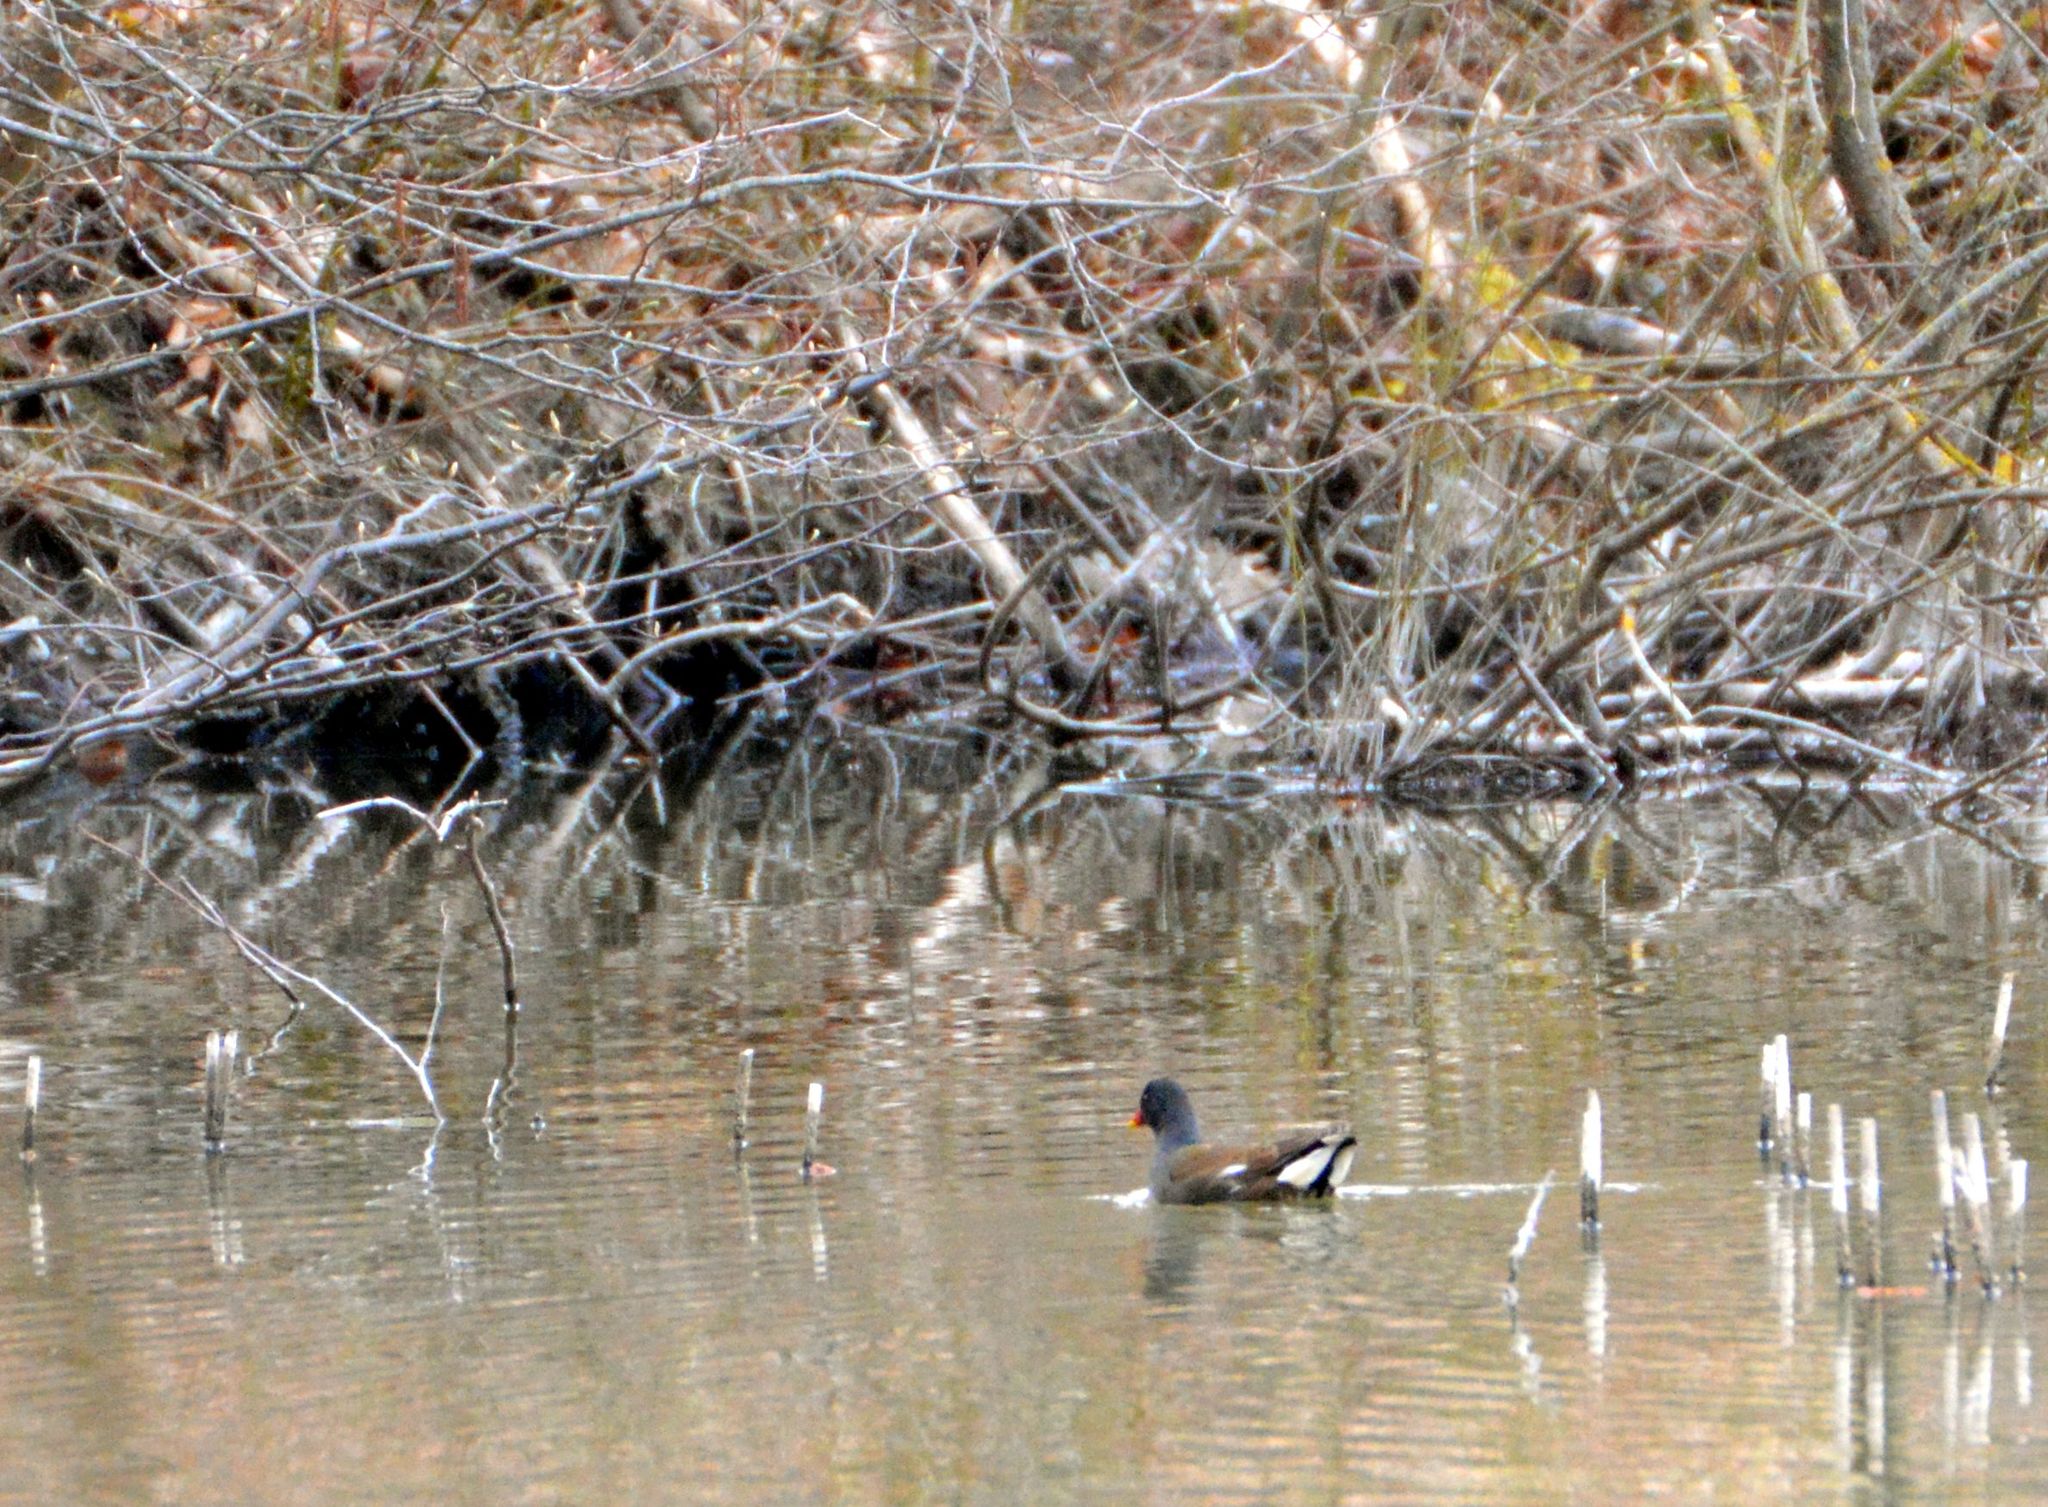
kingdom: Animalia
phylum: Chordata
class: Aves
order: Gruiformes
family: Rallidae
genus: Gallinula
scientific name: Gallinula chloropus
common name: Common moorhen
